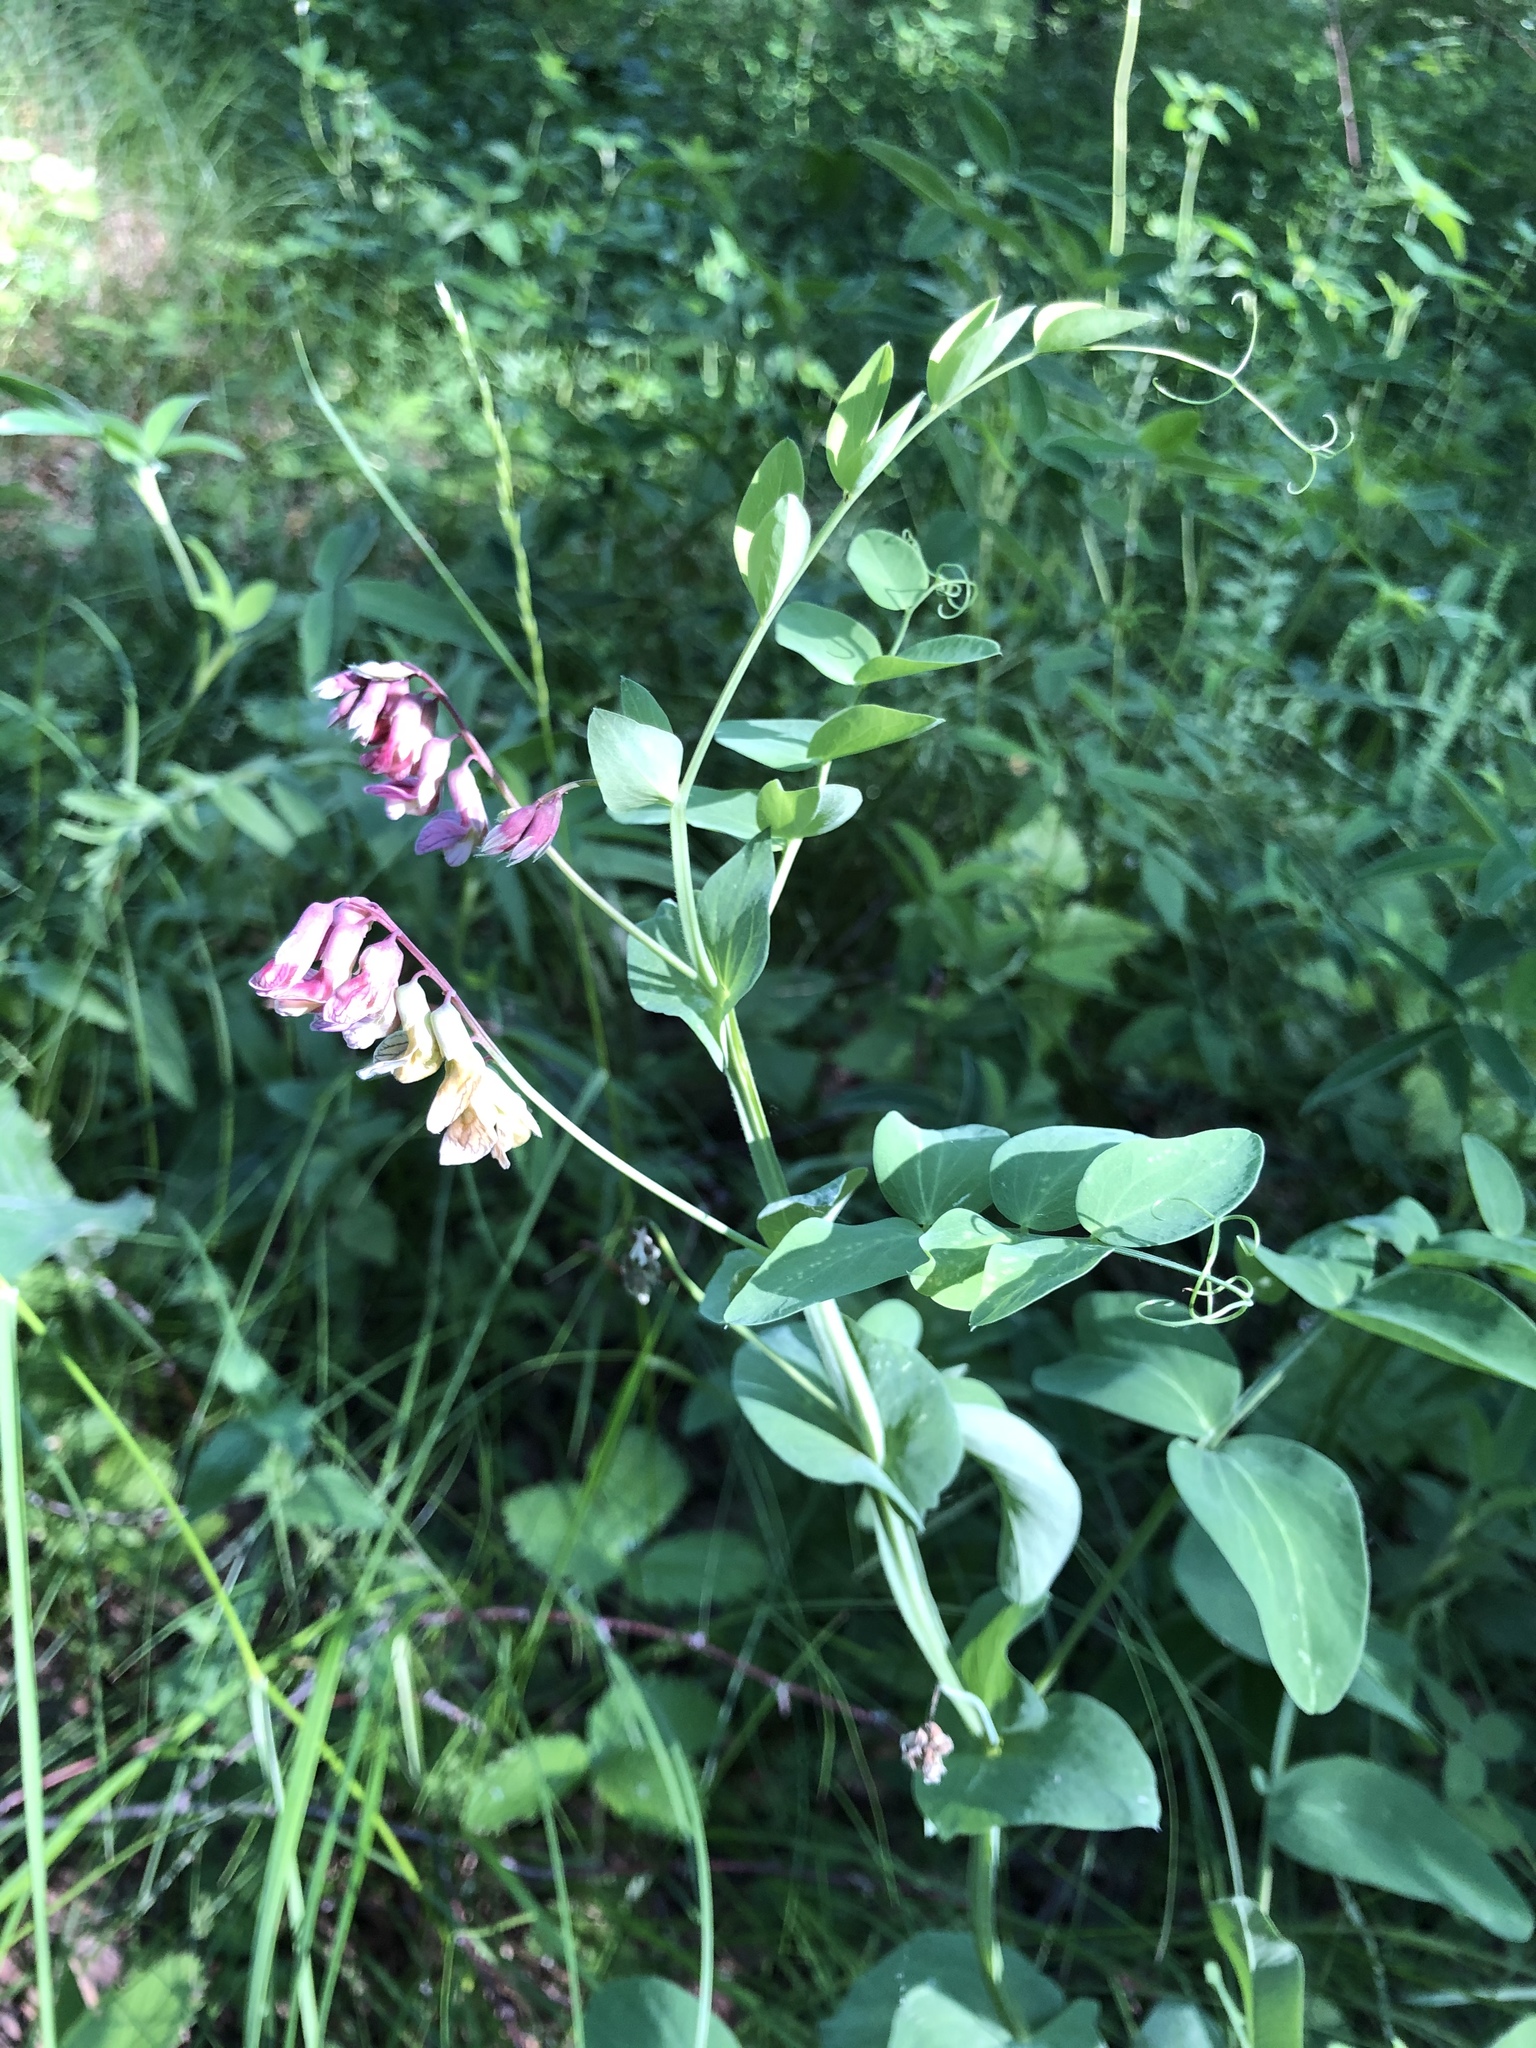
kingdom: Plantae
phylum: Tracheophyta
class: Magnoliopsida
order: Fabales
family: Fabaceae
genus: Lathyrus
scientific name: Lathyrus pisiformis
